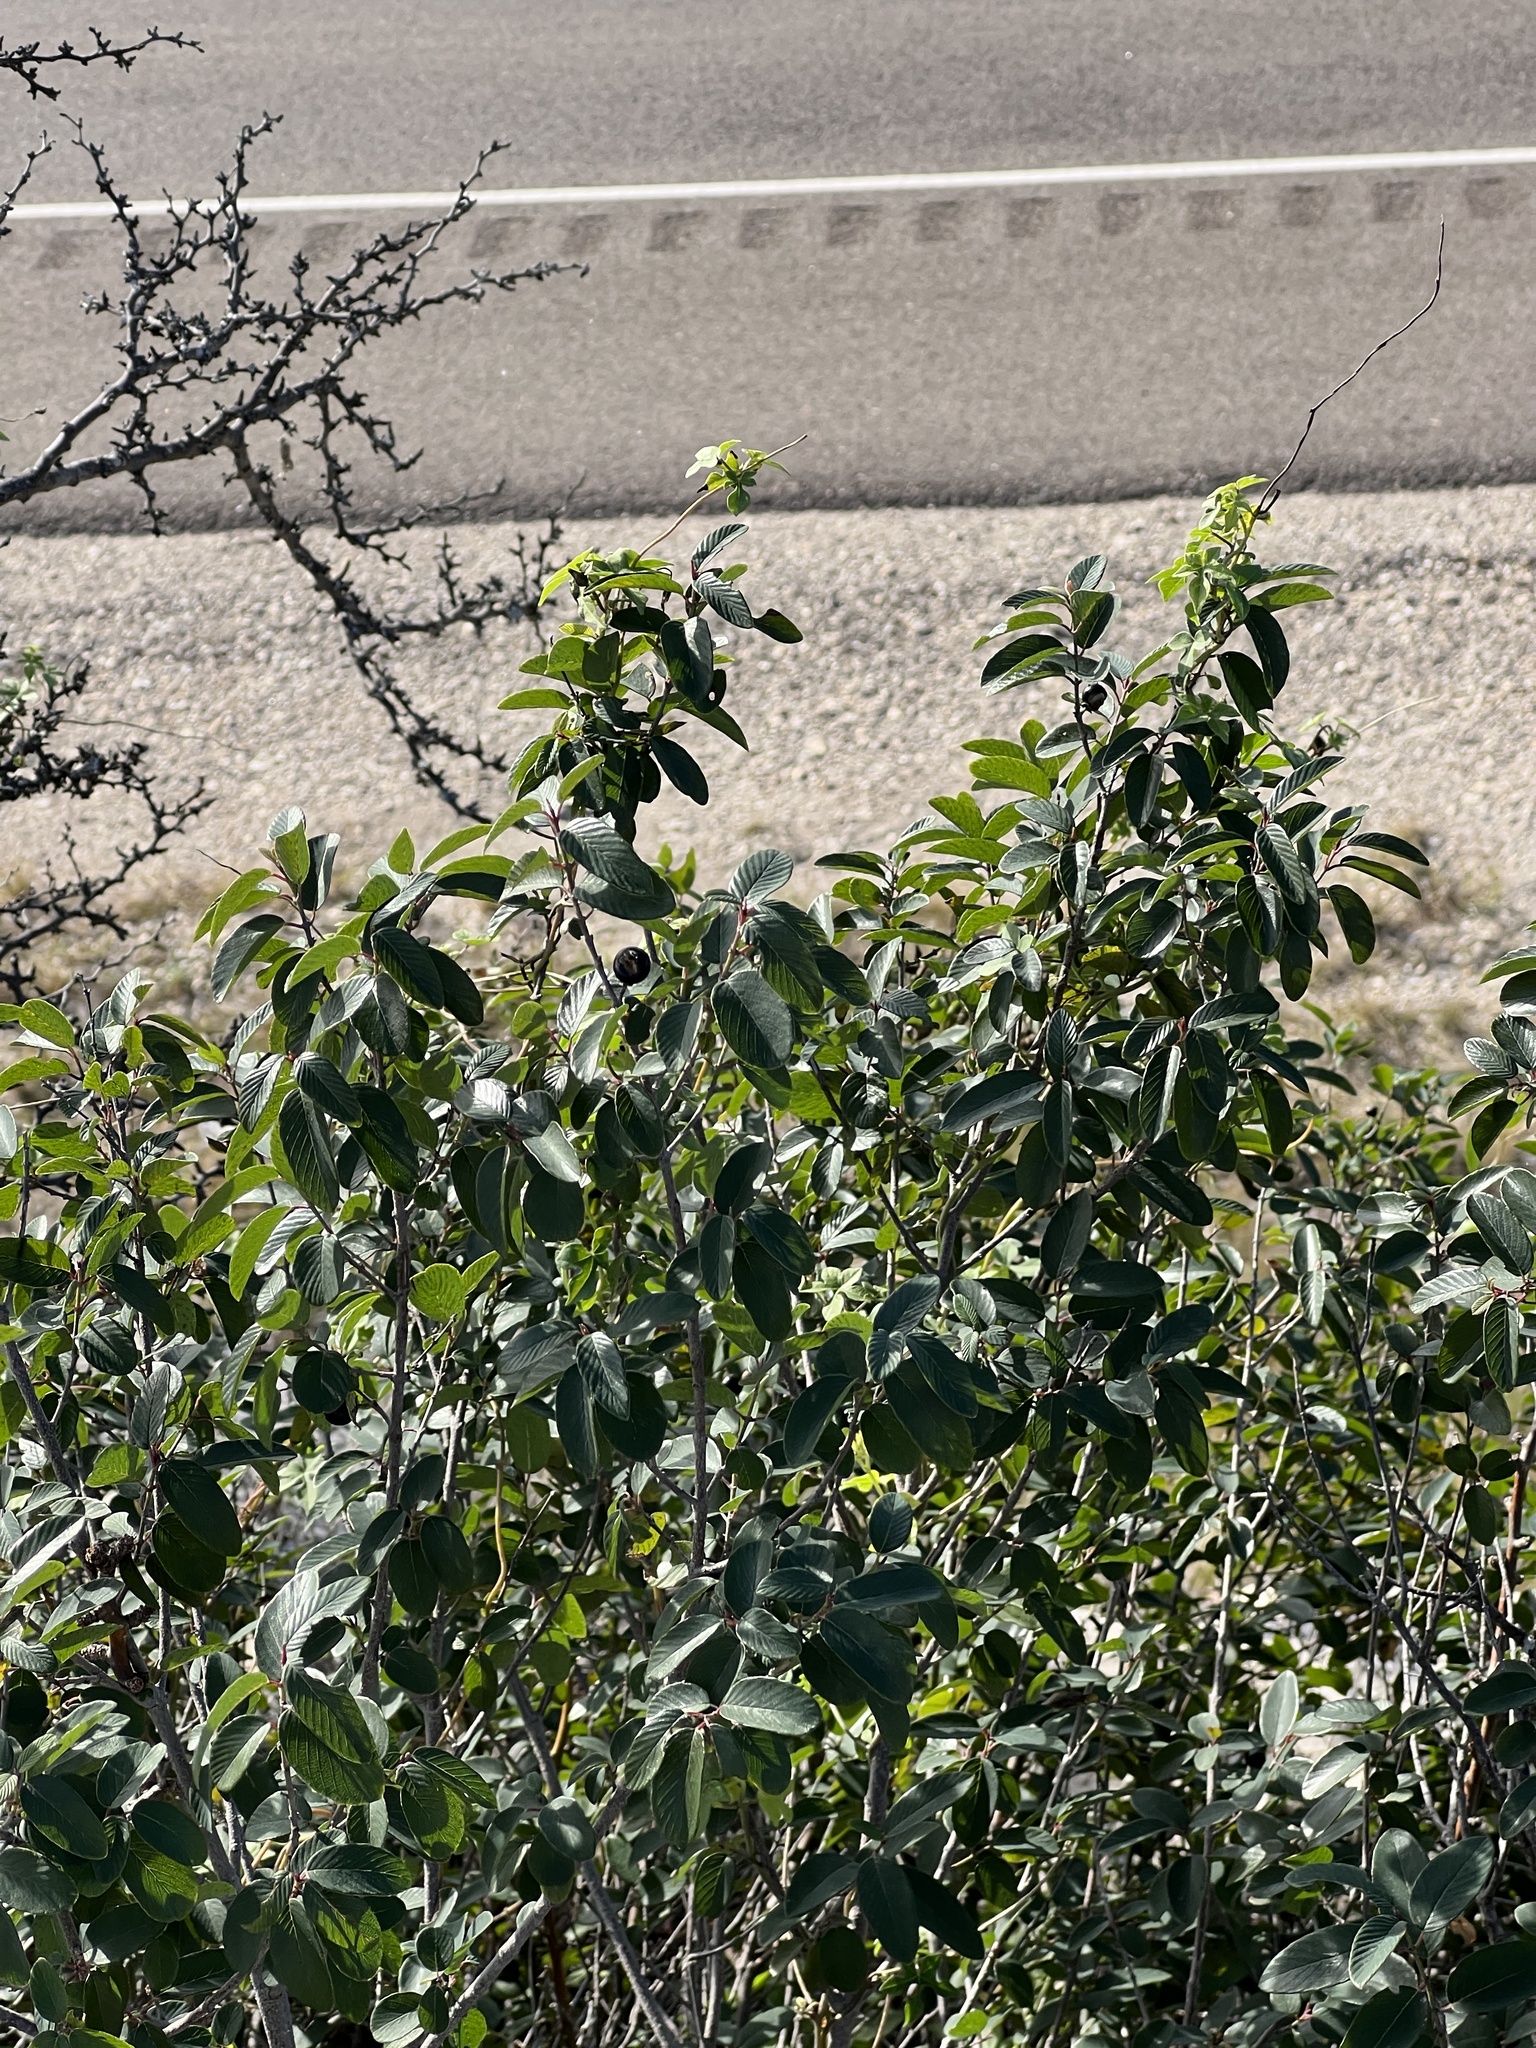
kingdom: Plantae
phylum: Tracheophyta
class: Magnoliopsida
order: Rosales
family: Rhamnaceae
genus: Karwinskia
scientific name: Karwinskia humboldtiana
